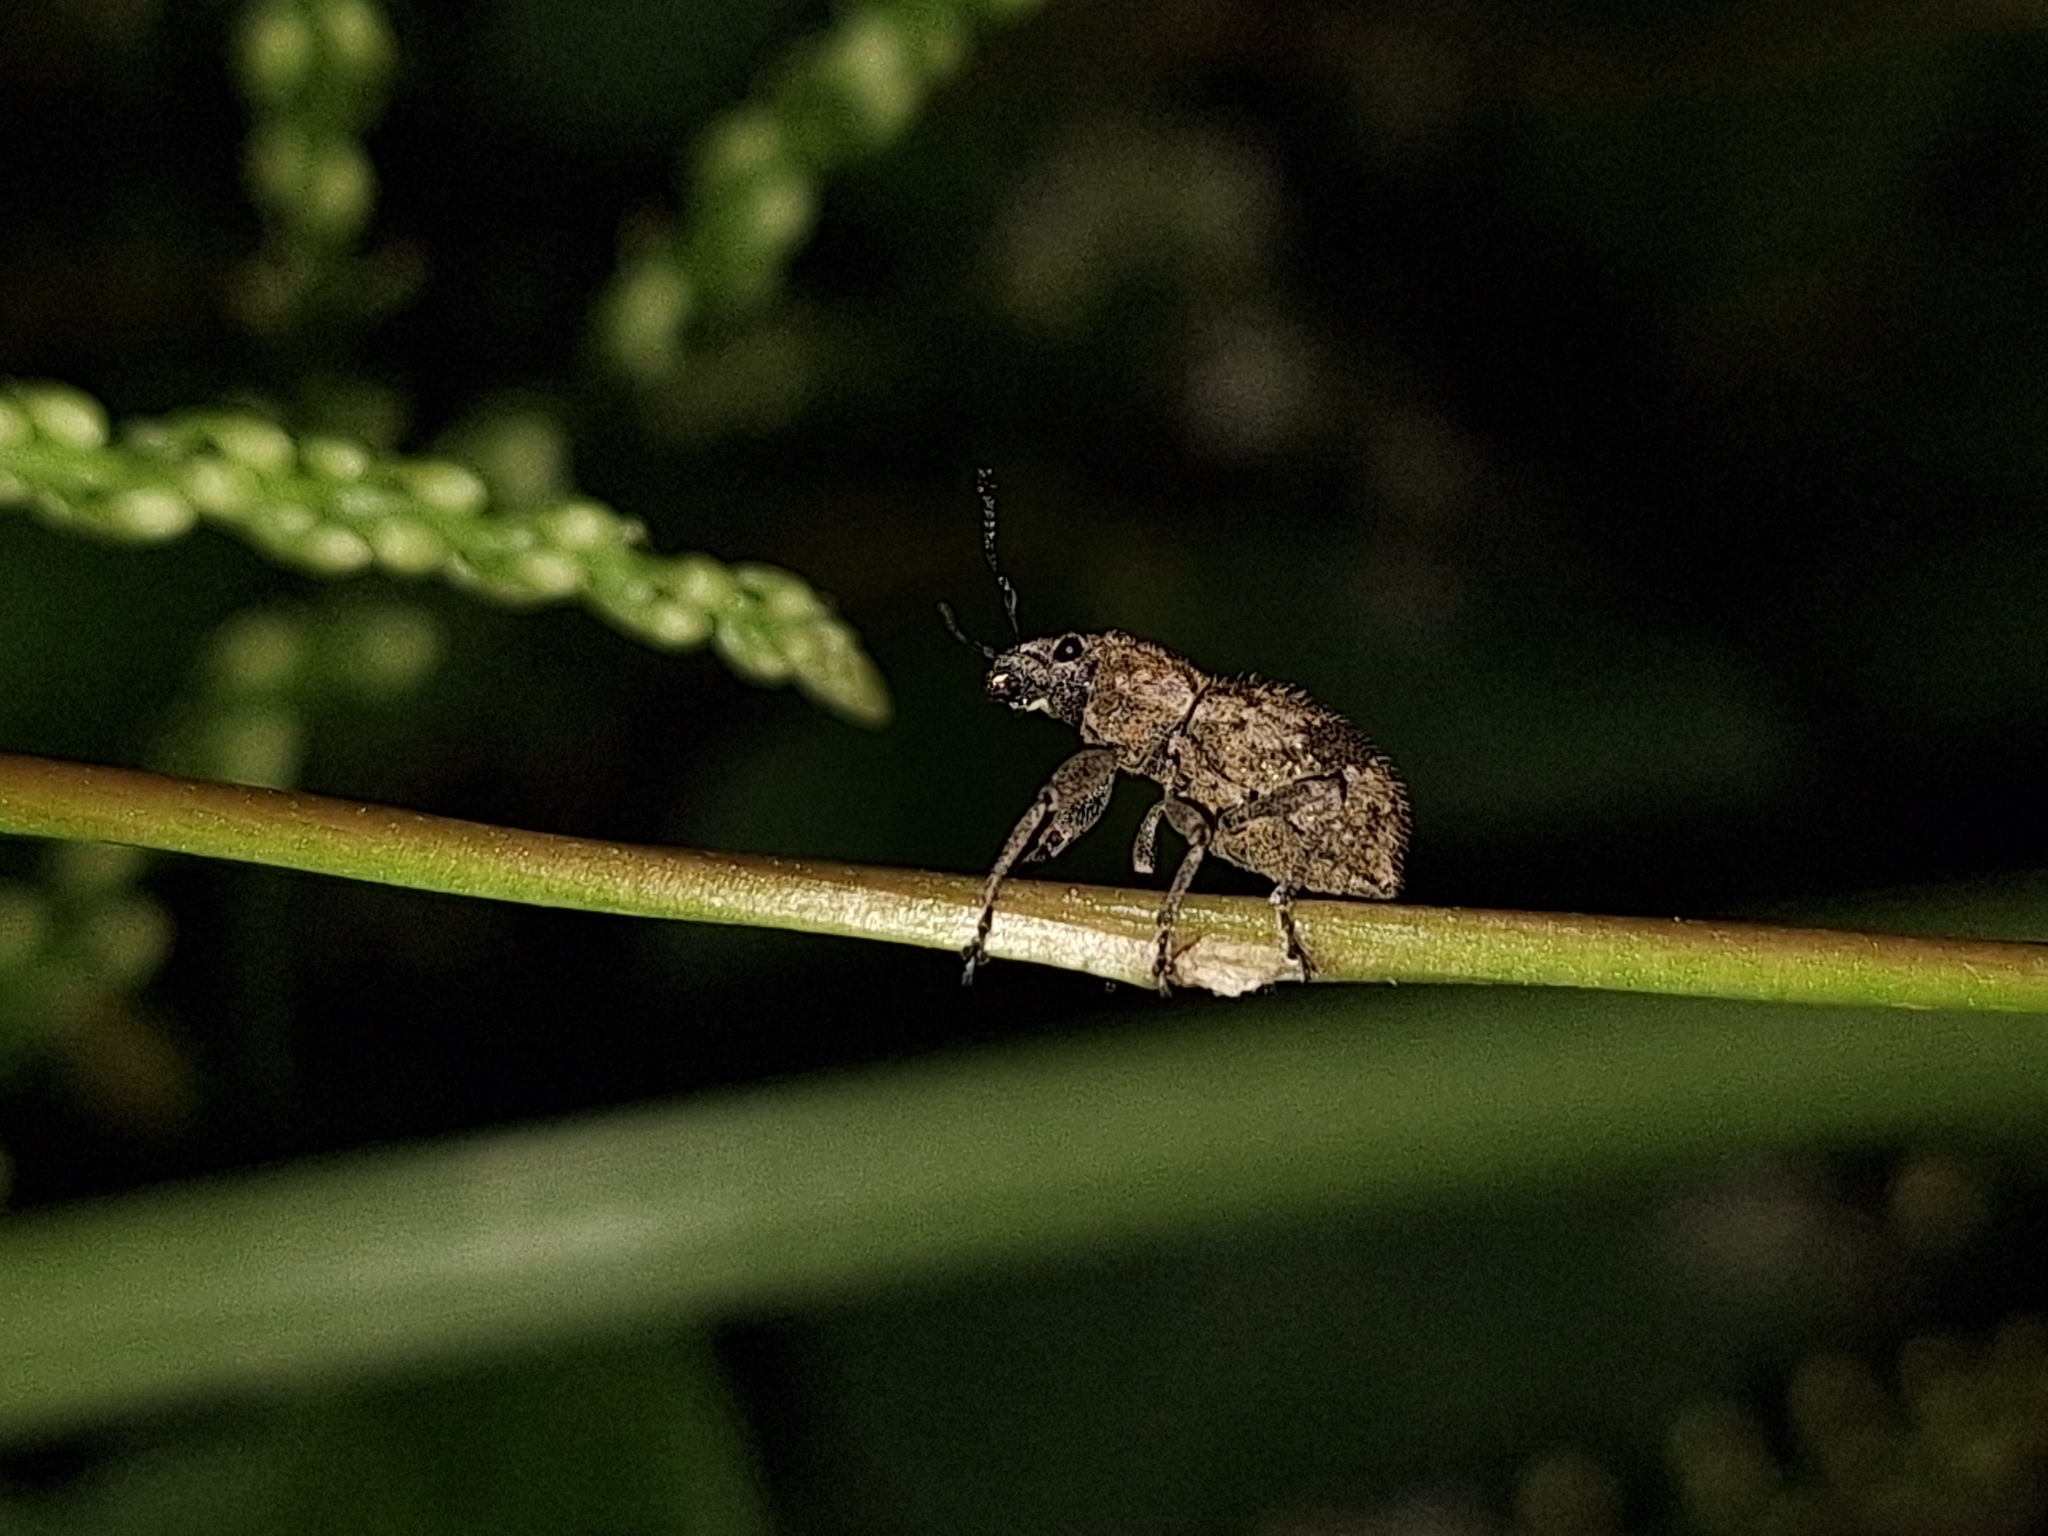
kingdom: Animalia
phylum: Arthropoda
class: Insecta
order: Coleoptera
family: Curculionidae
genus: Pantomorus
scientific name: Pantomorus
